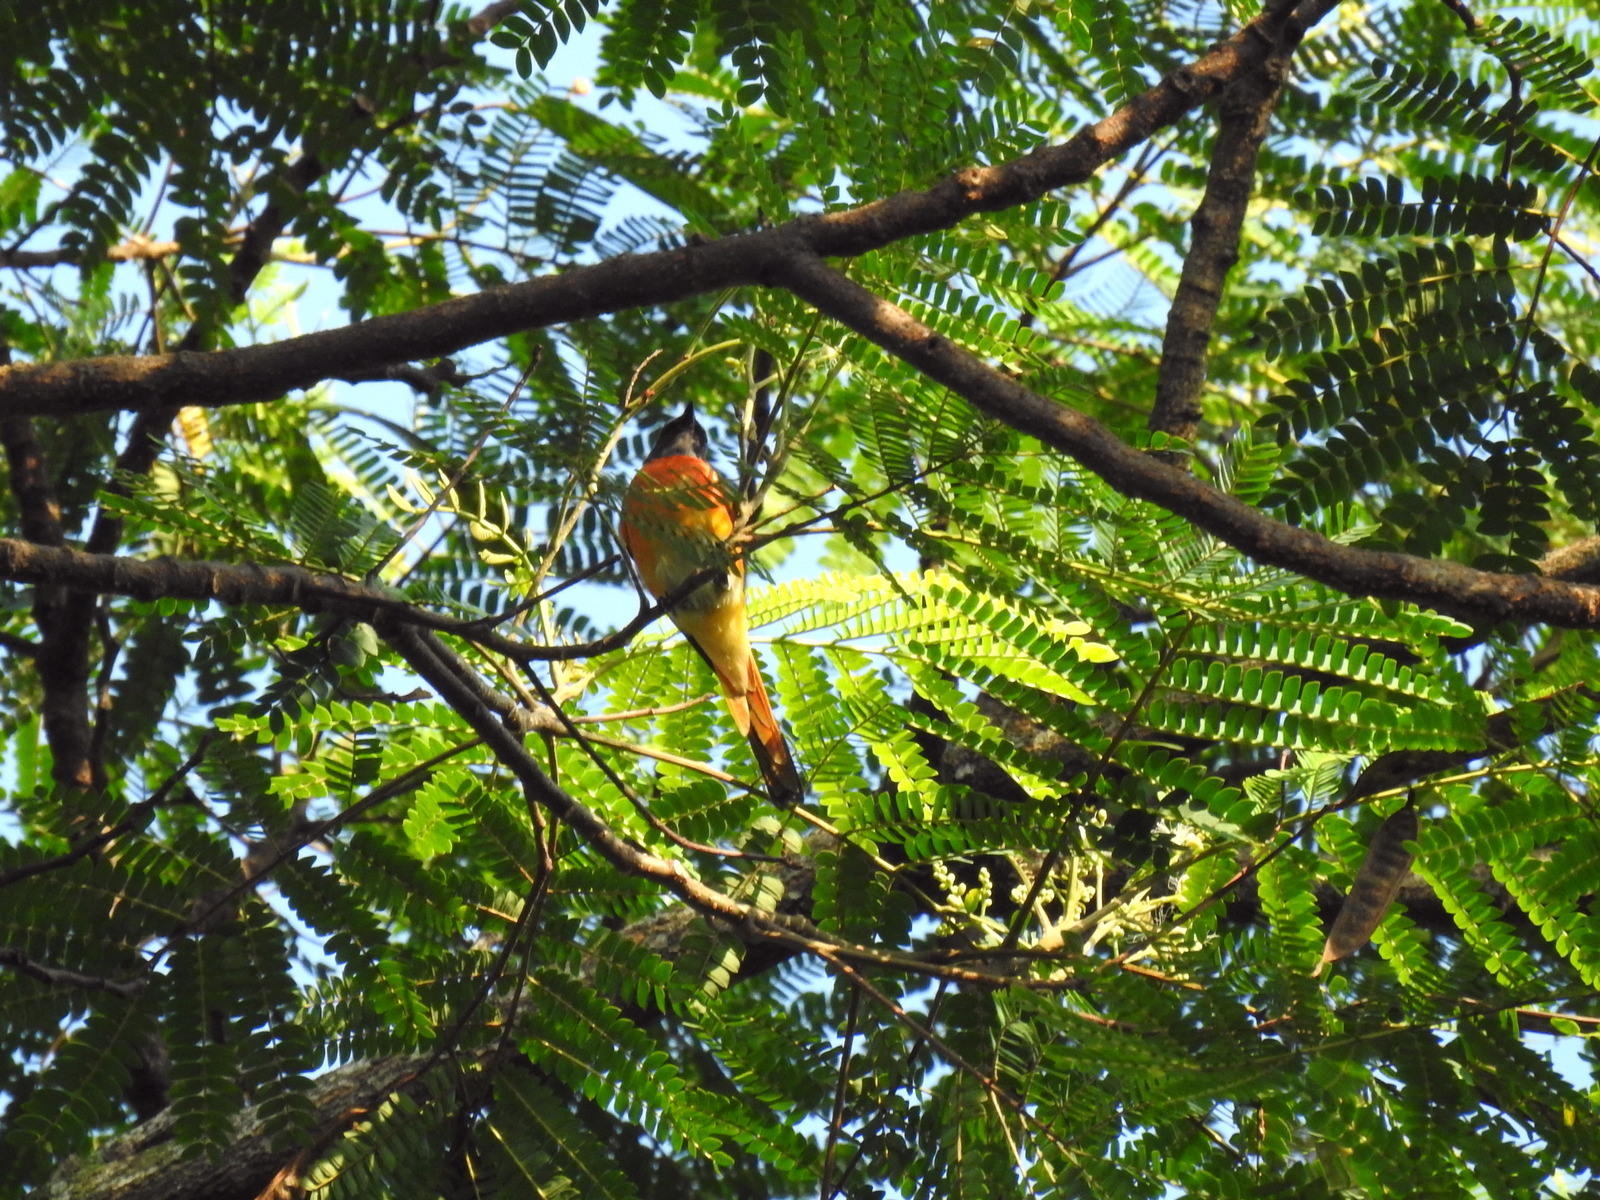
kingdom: Animalia
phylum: Chordata
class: Aves
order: Passeriformes
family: Campephagidae
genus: Pericrocotus
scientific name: Pericrocotus cinnamomeus
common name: Small minivet
